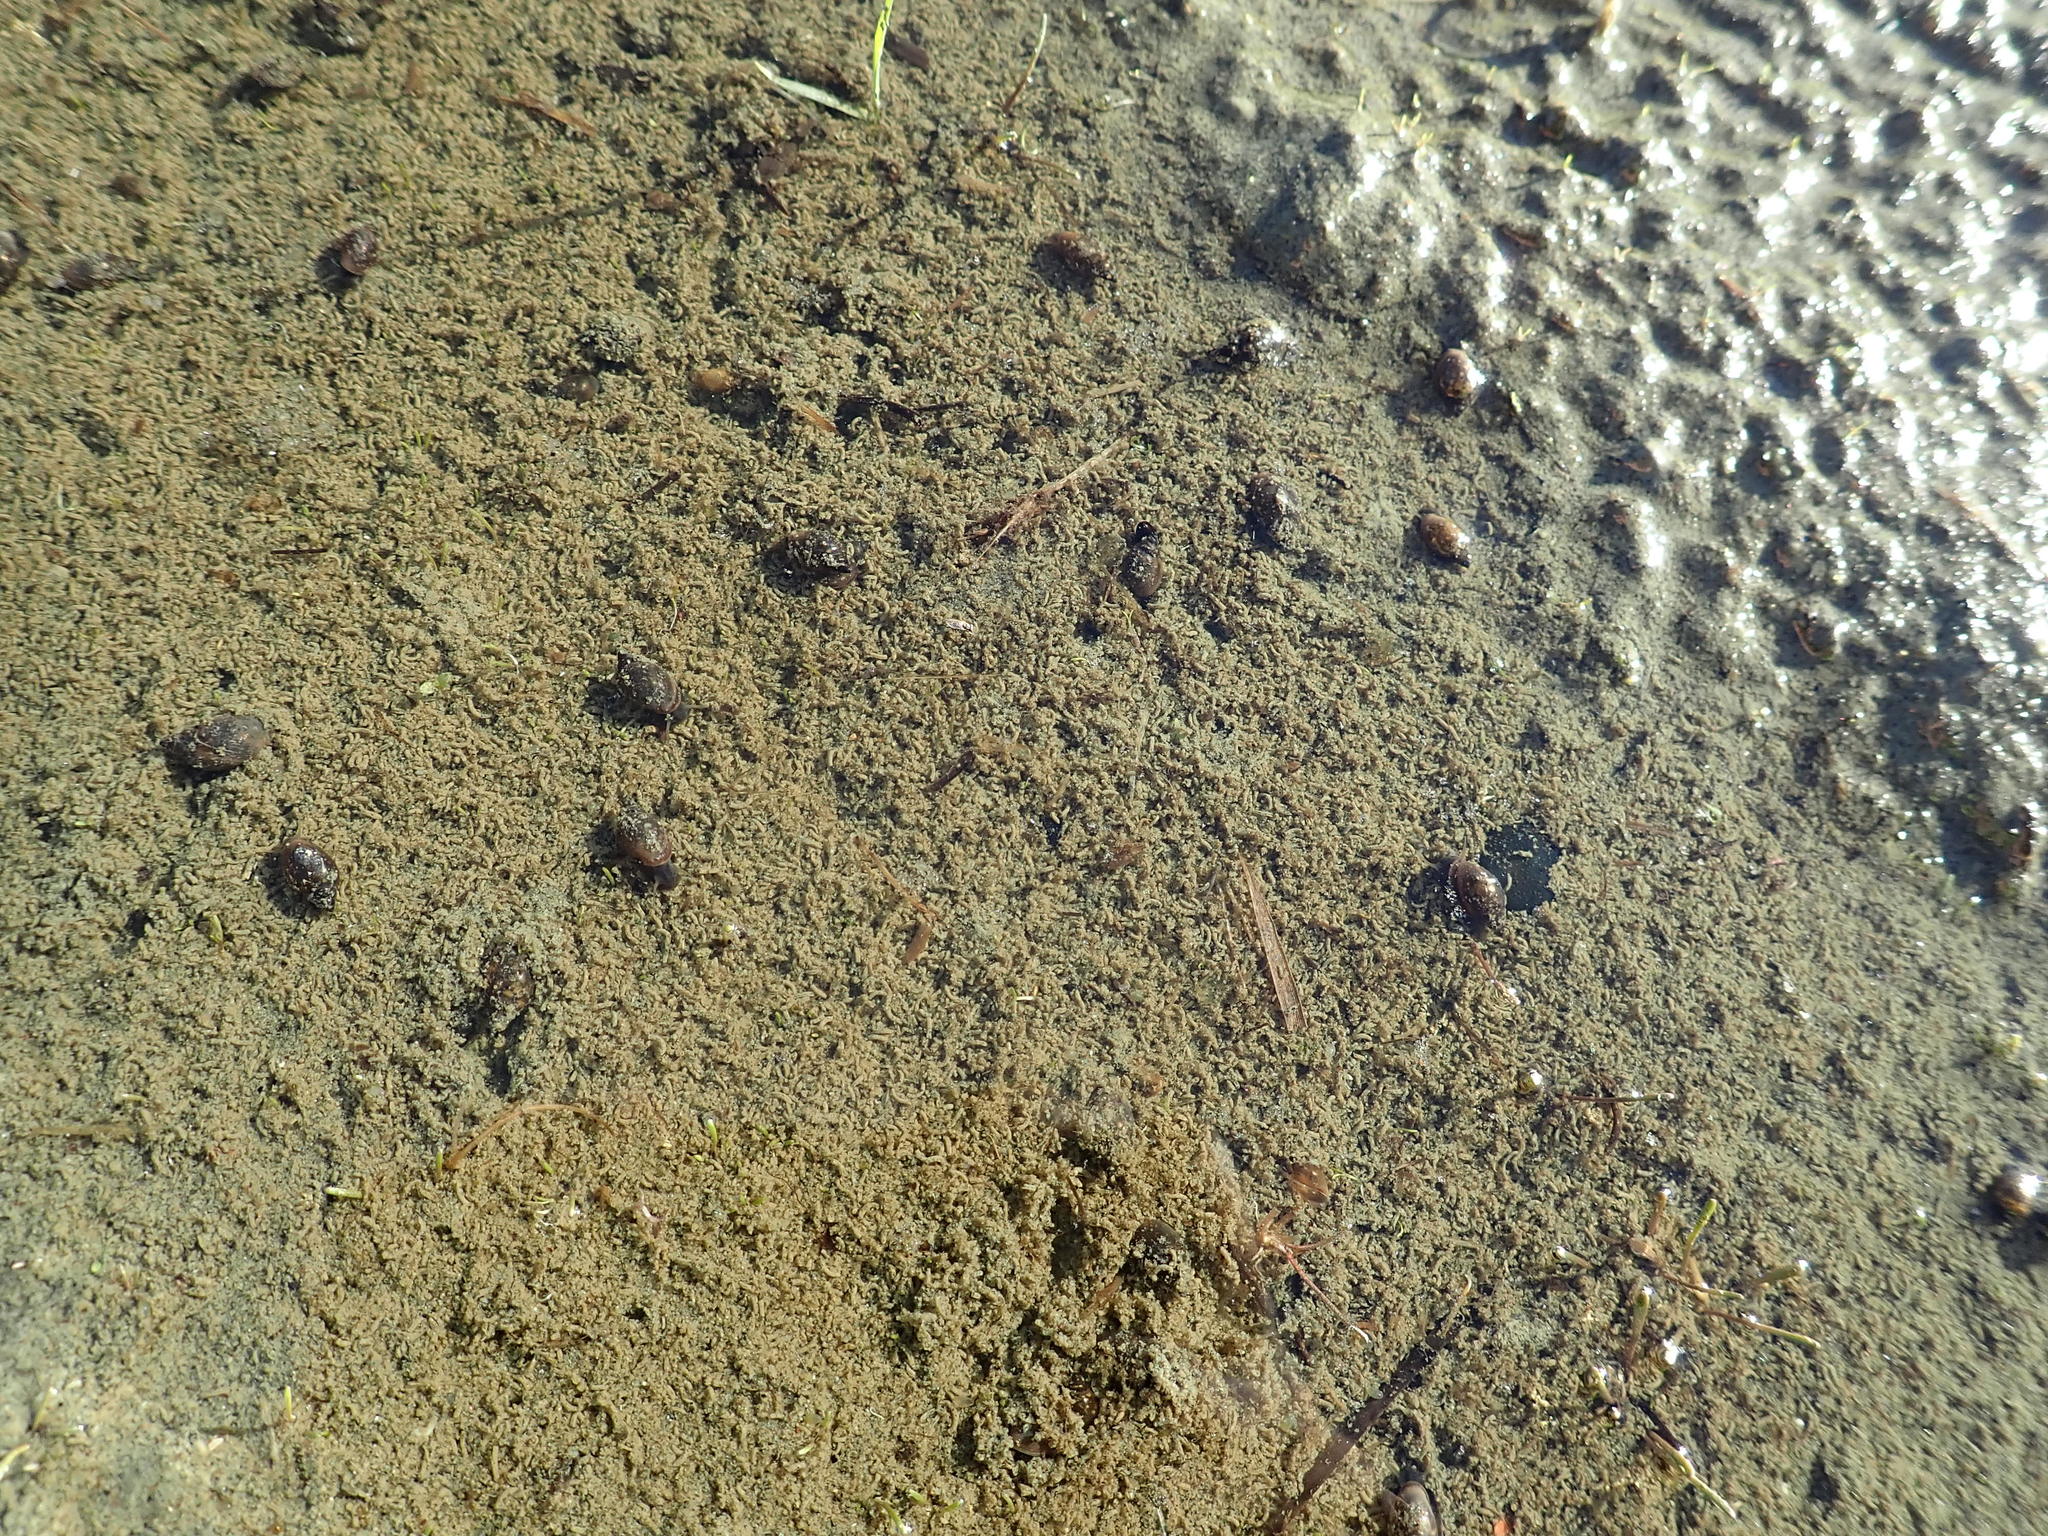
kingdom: Animalia
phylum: Mollusca
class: Gastropoda
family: Physidae
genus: Physella
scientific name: Physella acuta
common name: European physa
